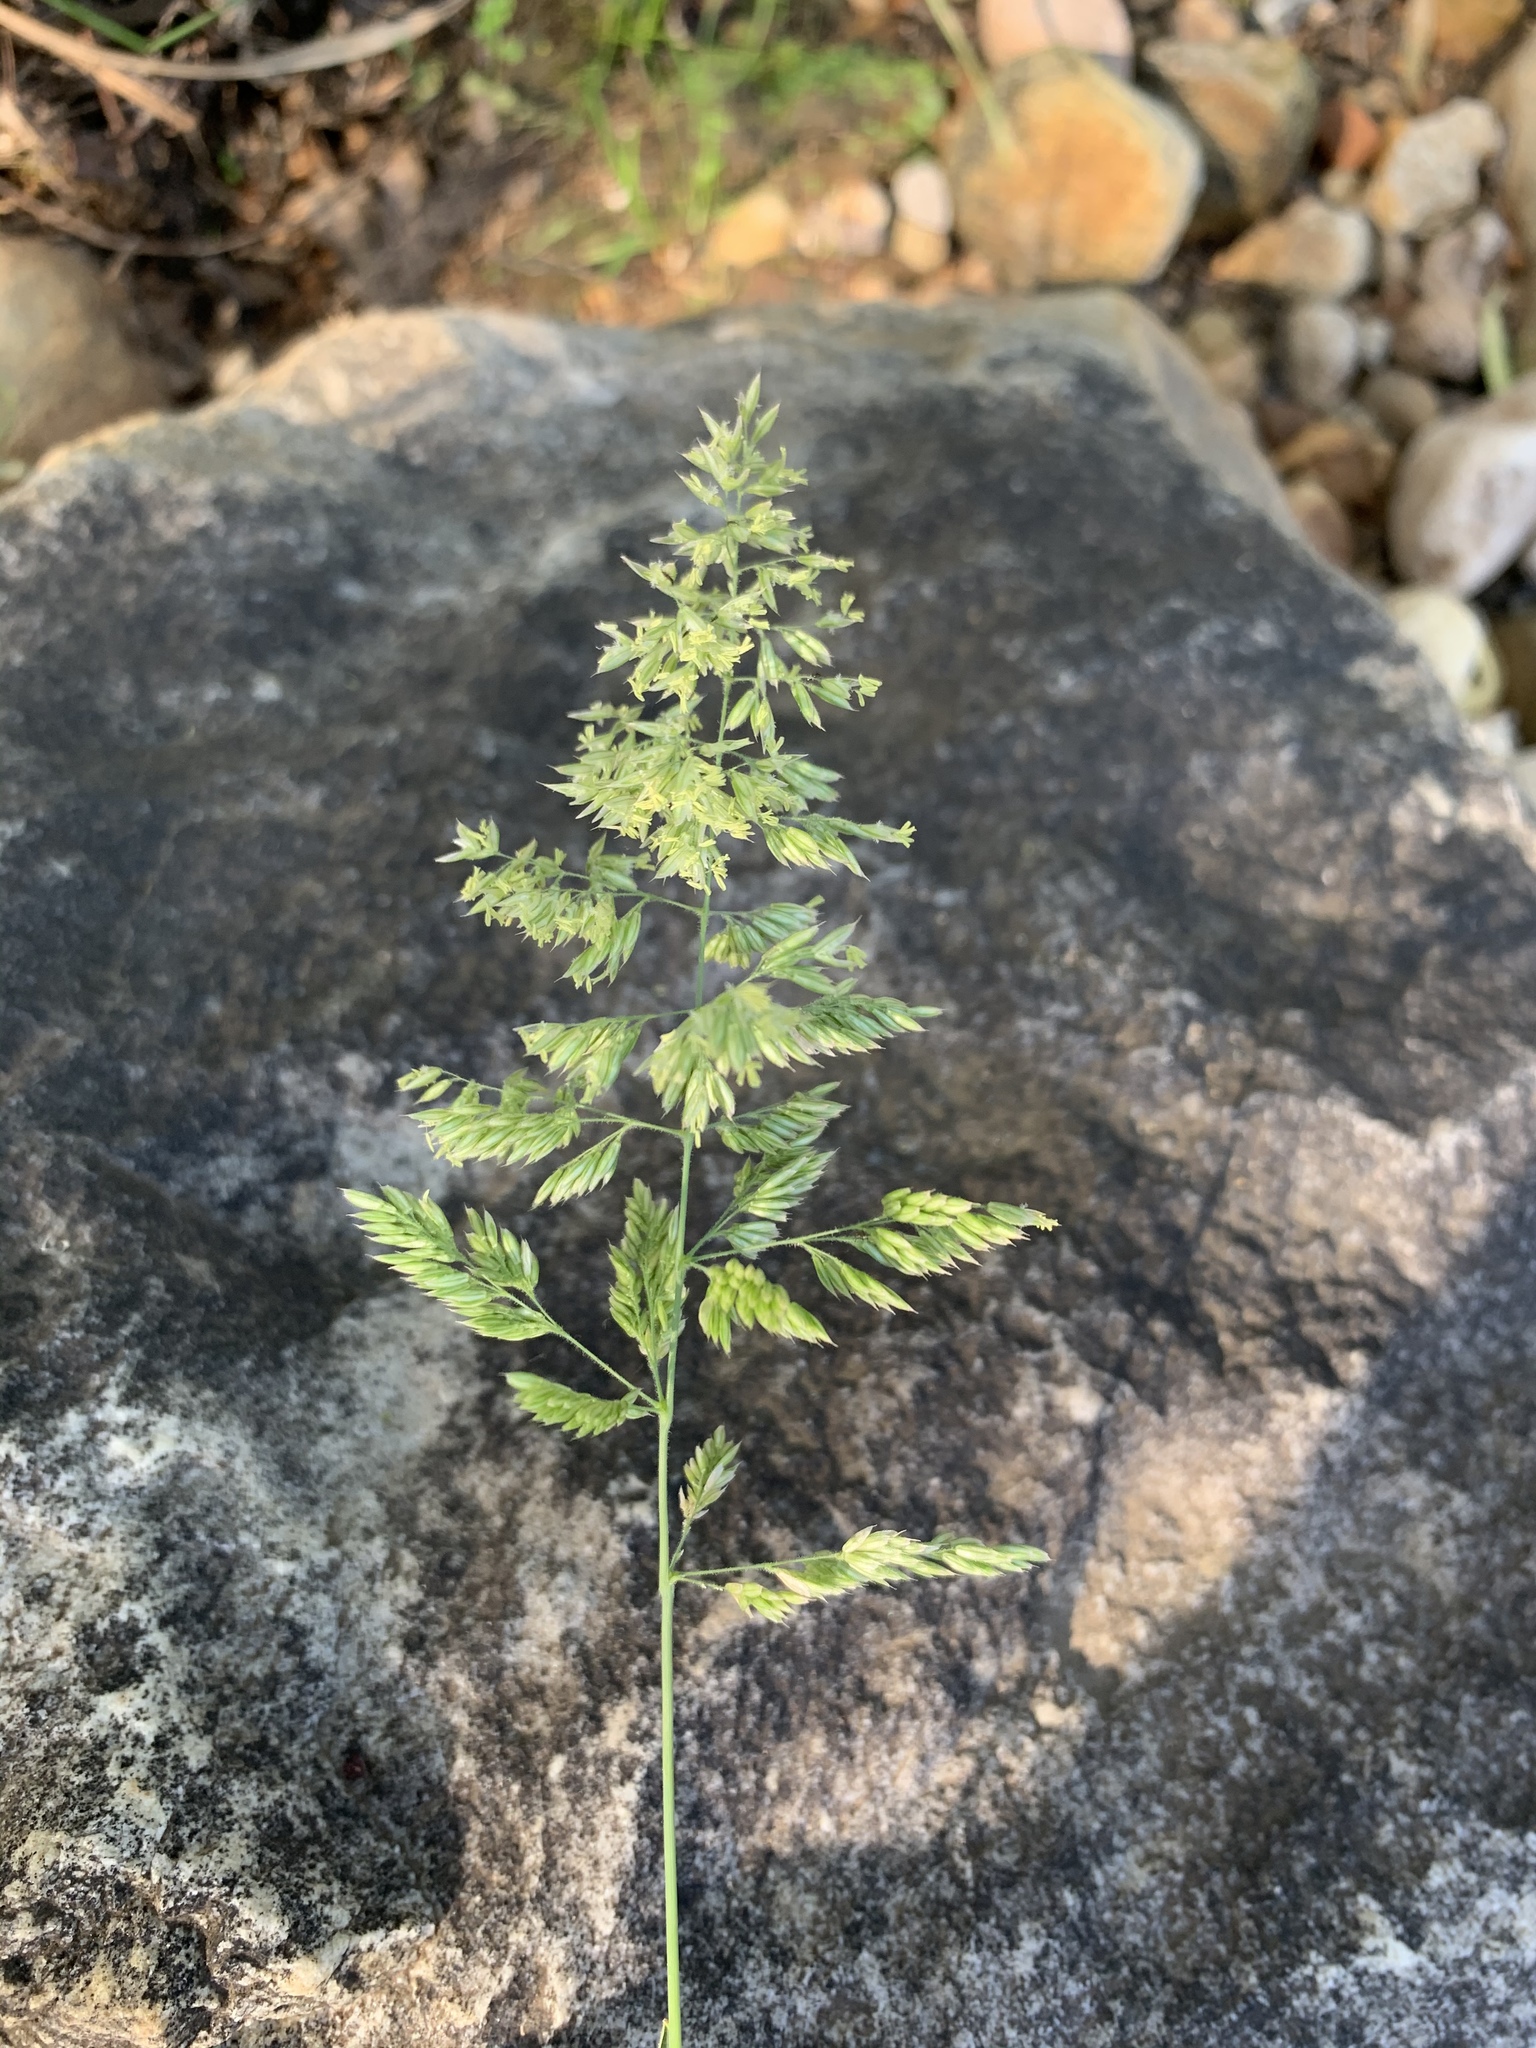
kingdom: Plantae
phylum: Tracheophyta
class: Liliopsida
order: Poales
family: Poaceae
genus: Holcus
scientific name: Holcus lanatus
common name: Yorkshire-fog
